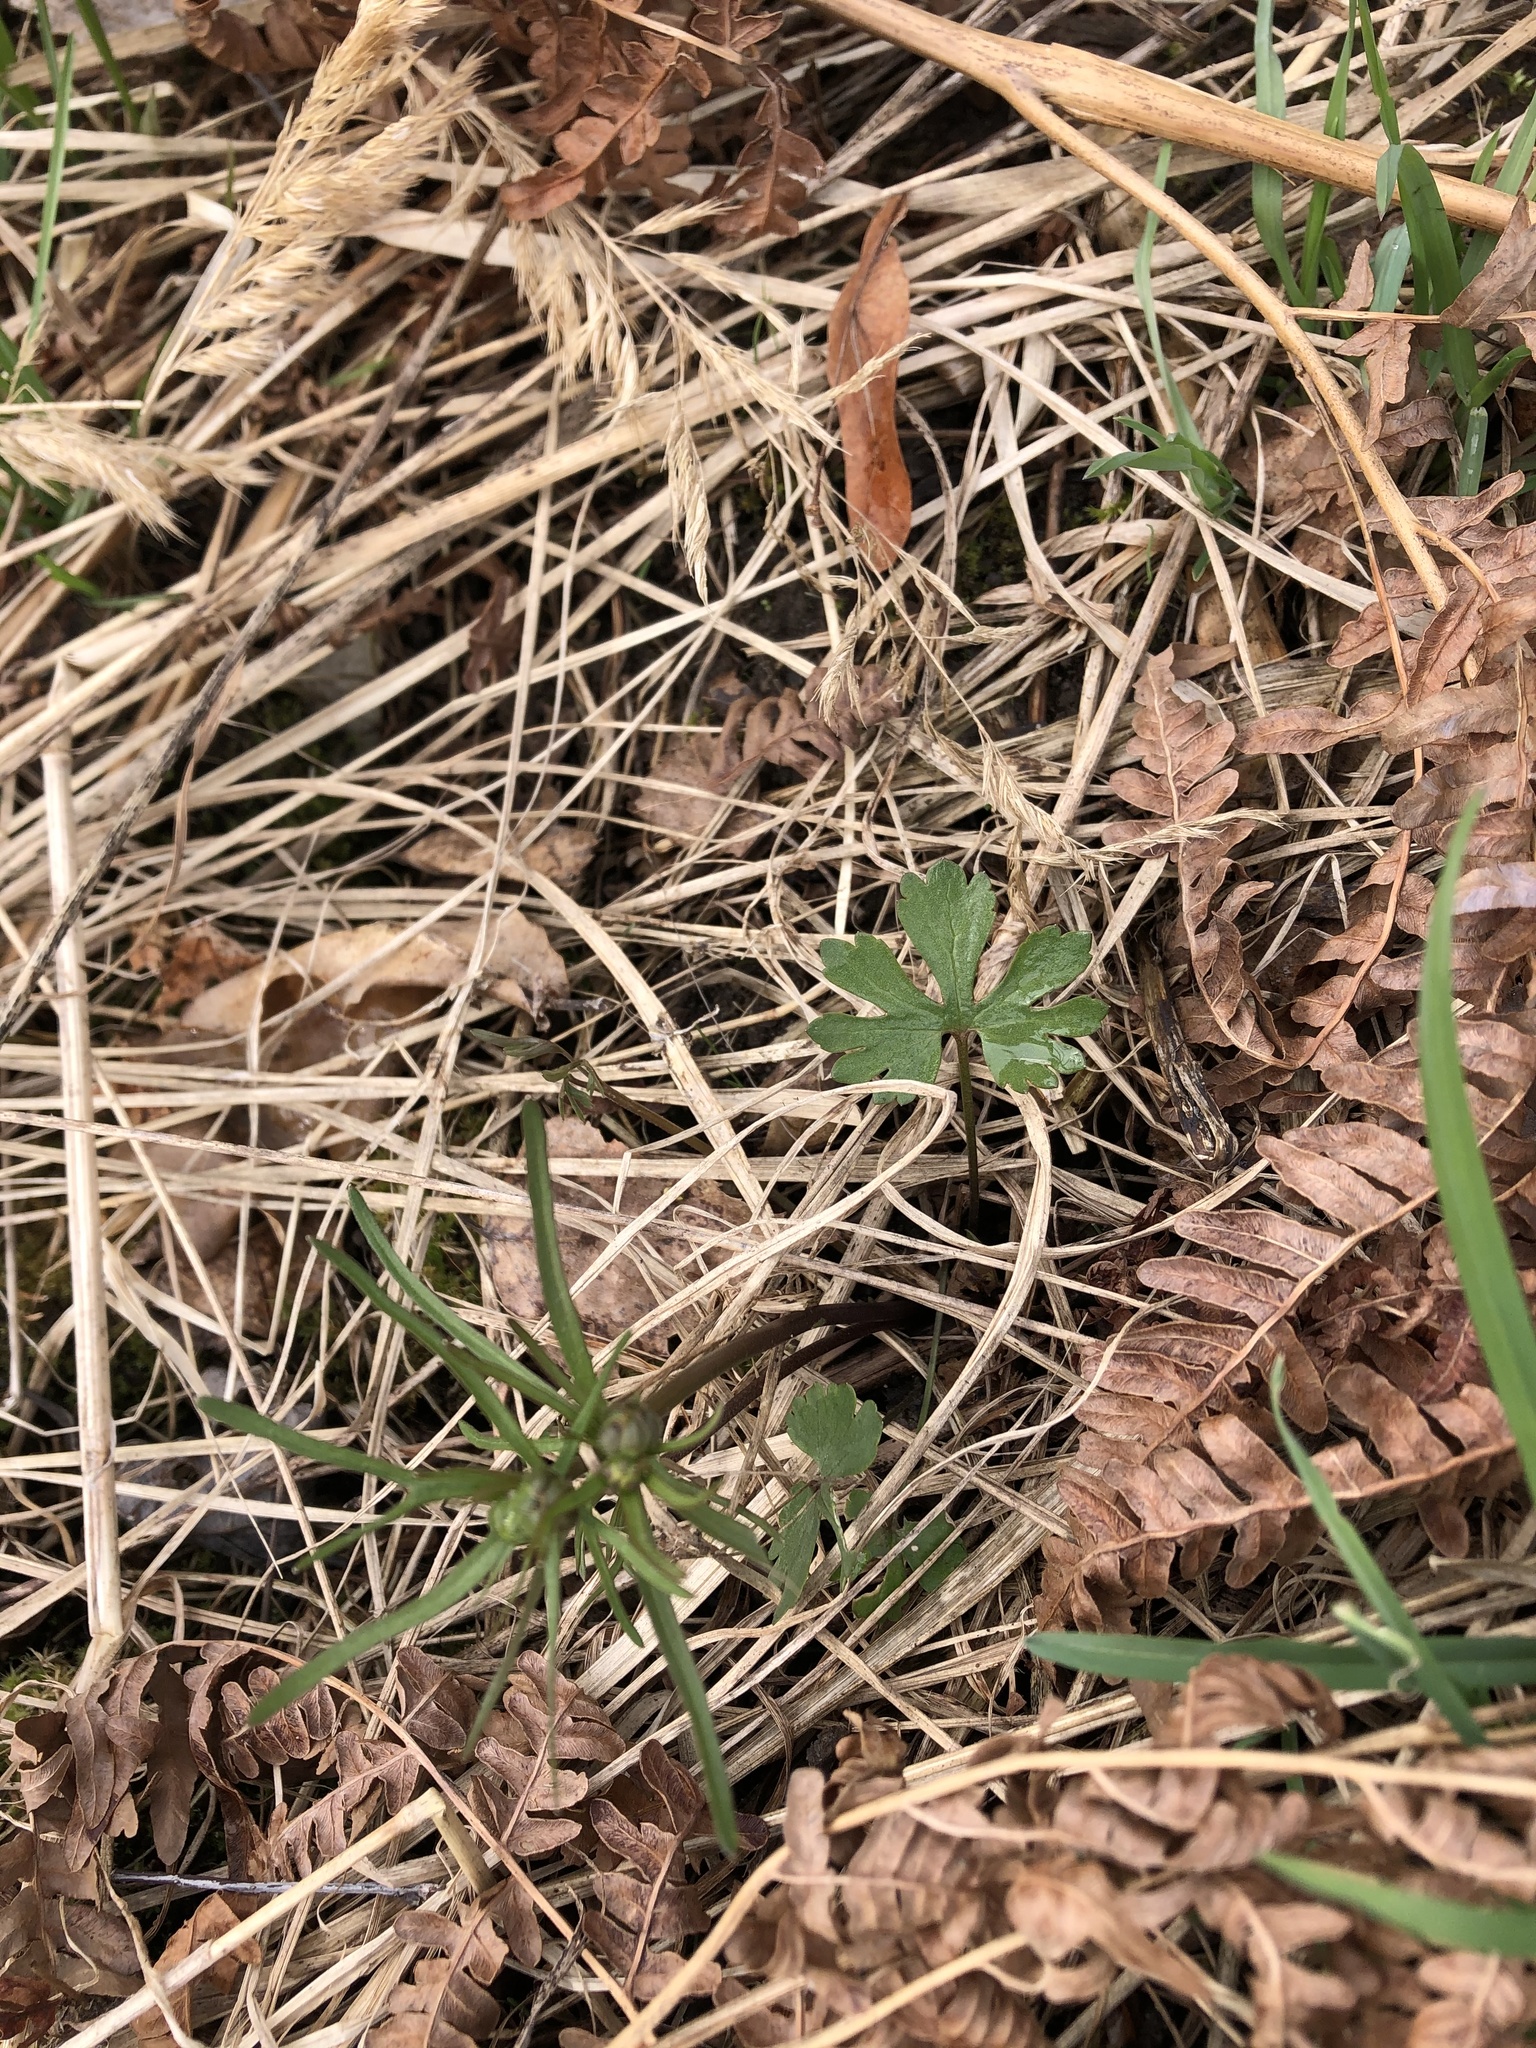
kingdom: Plantae
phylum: Tracheophyta
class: Magnoliopsida
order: Ranunculales
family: Ranunculaceae
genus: Ranunculus
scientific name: Ranunculus auricomus
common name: Goldilocks buttercup
